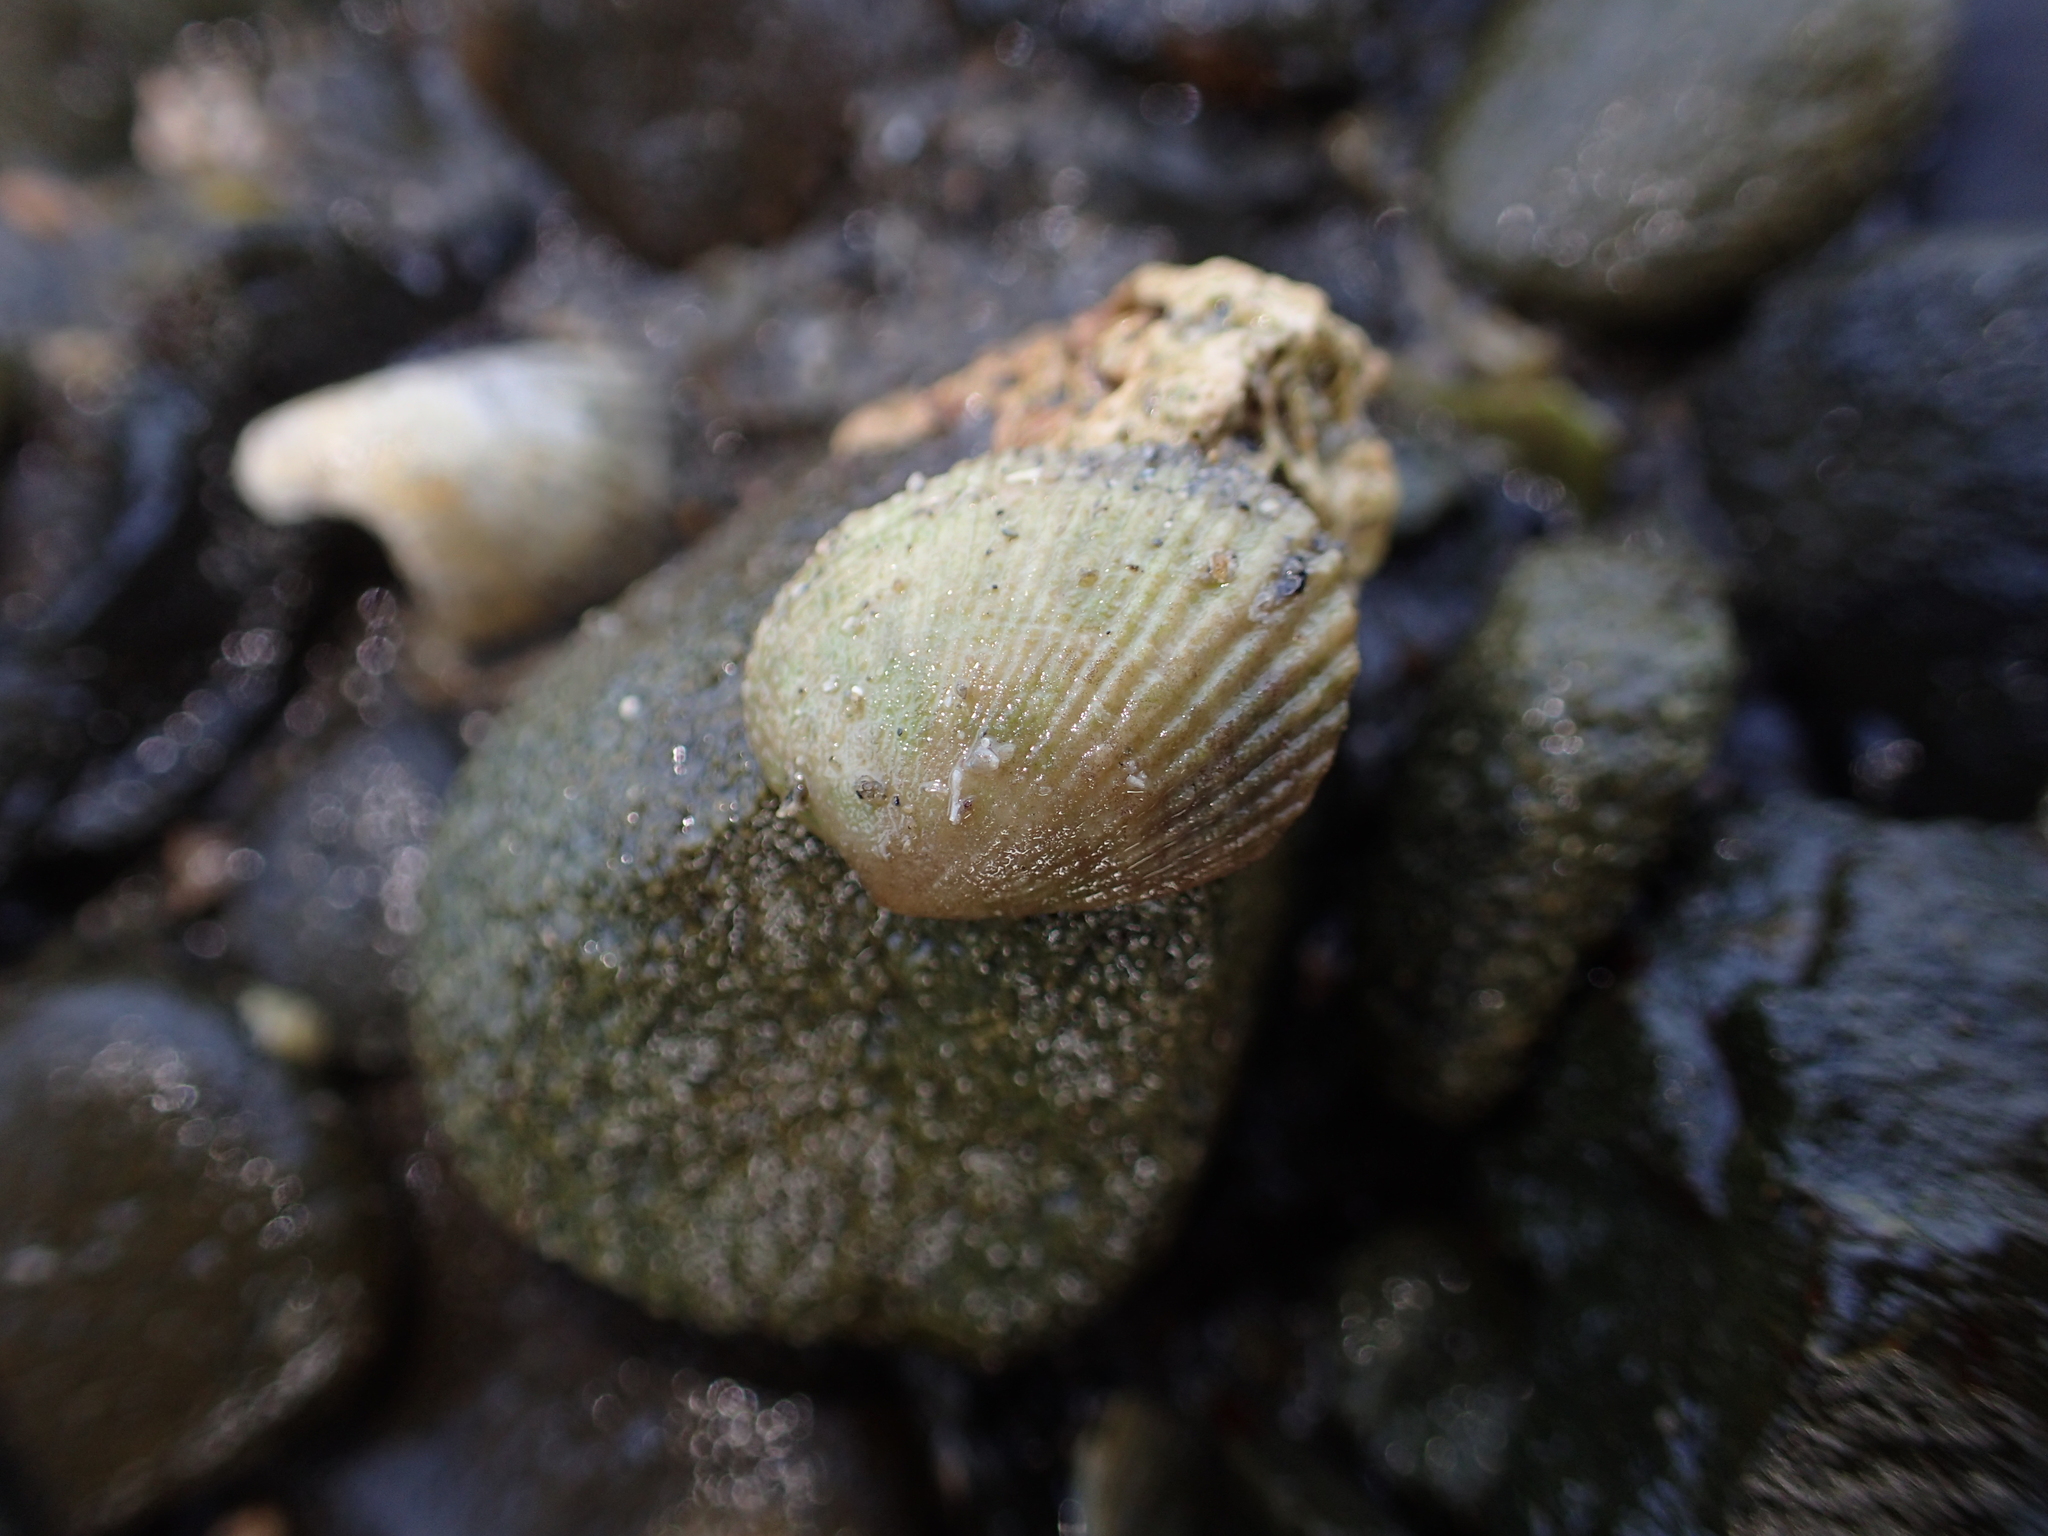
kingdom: Animalia
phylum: Mollusca
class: Bivalvia
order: Venerida
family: Veneridae
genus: Leukoma
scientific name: Leukoma crassicosta
